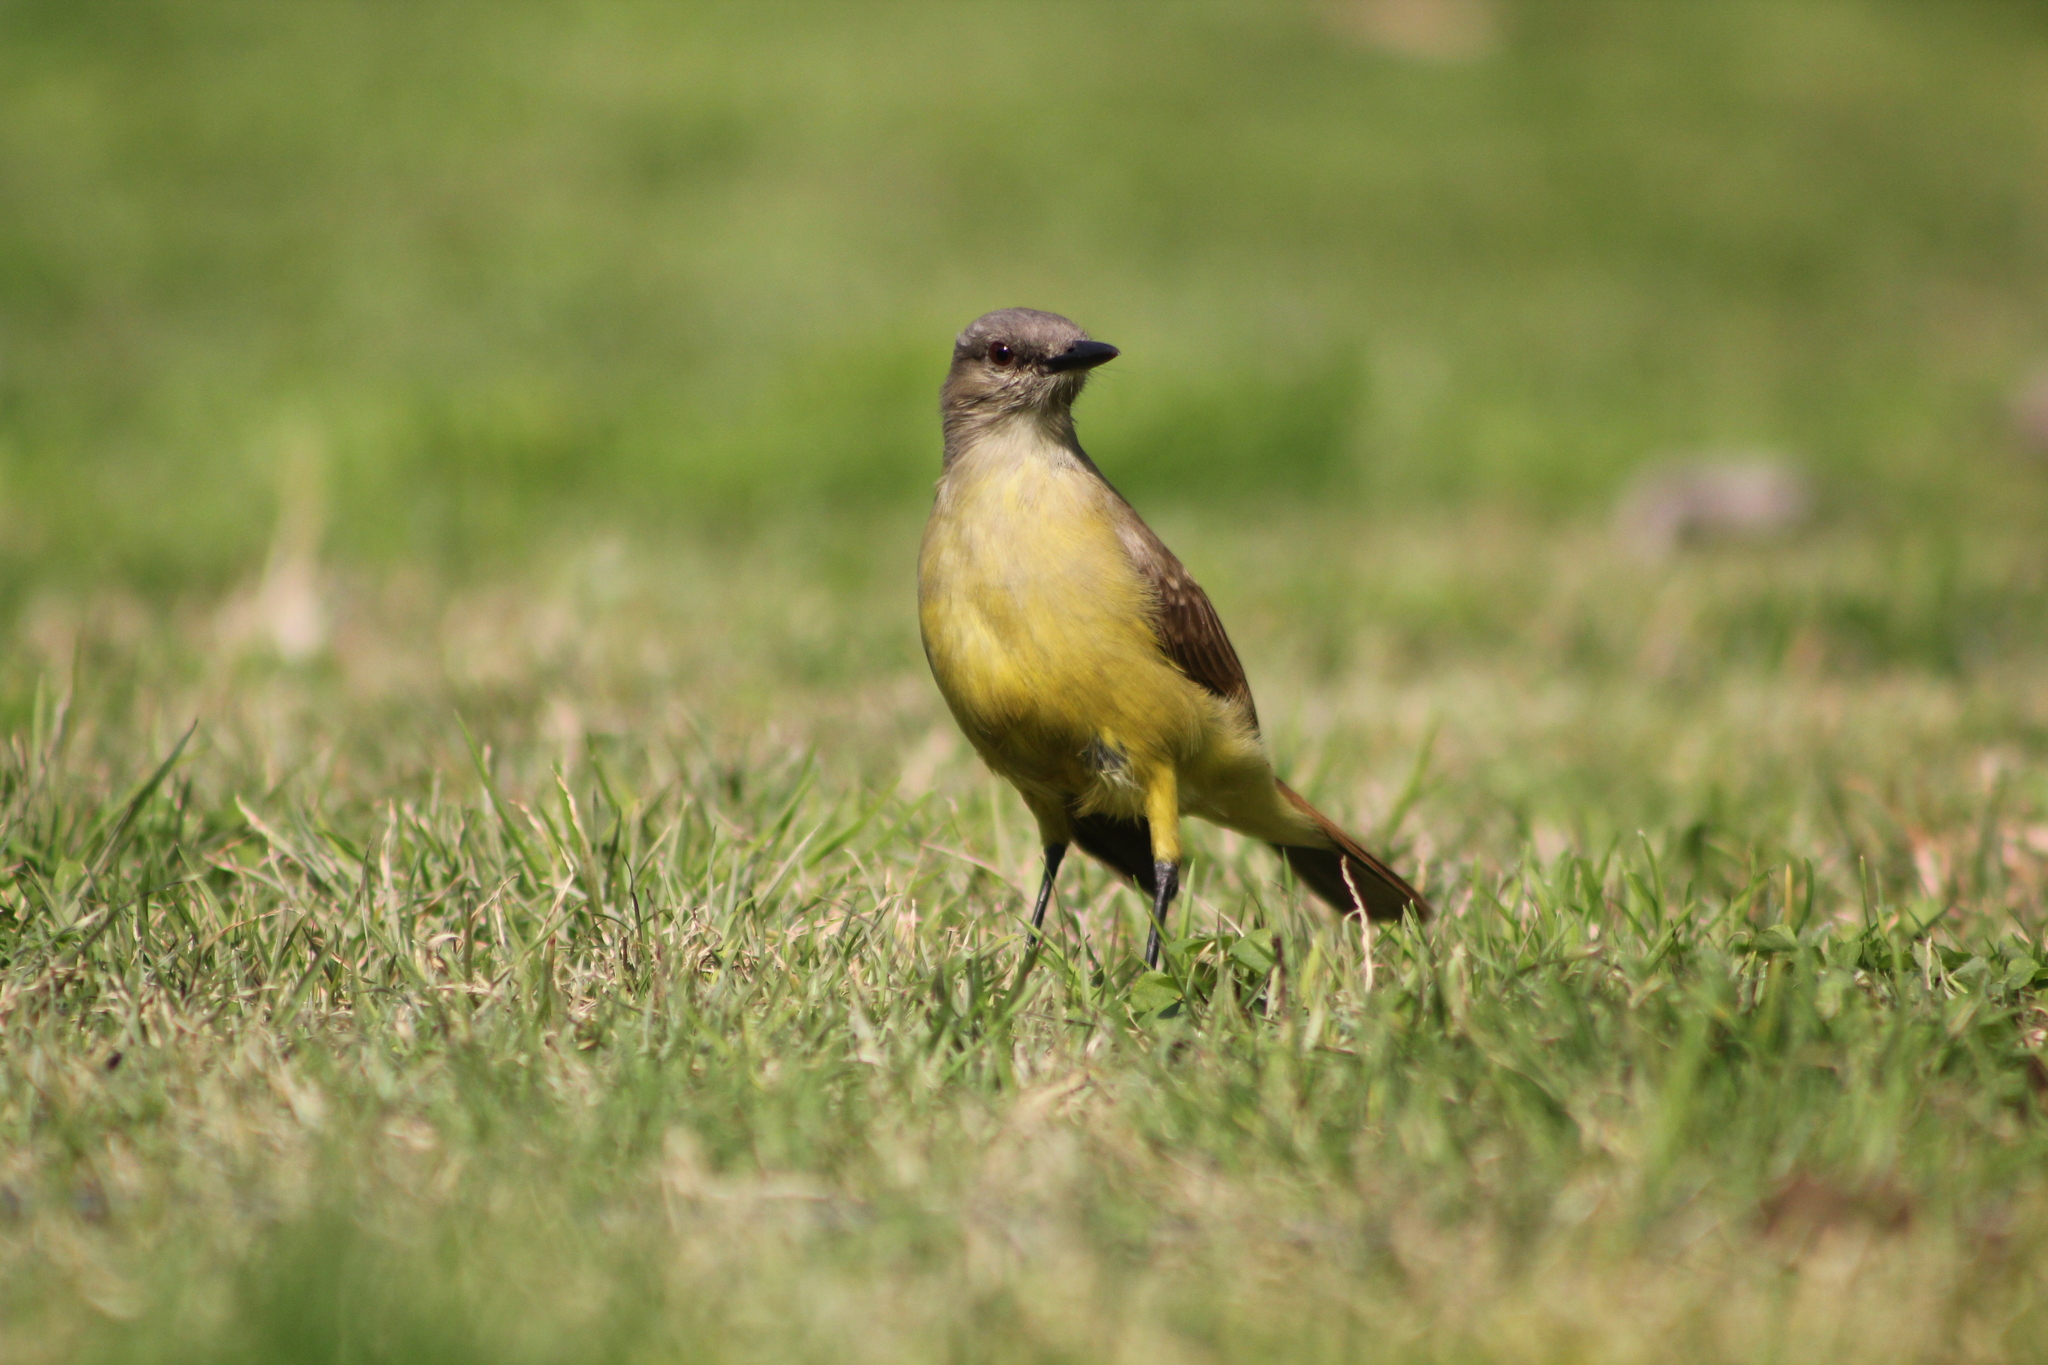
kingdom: Animalia
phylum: Chordata
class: Aves
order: Passeriformes
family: Tyrannidae
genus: Machetornis
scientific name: Machetornis rixosa
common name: Cattle tyrant
